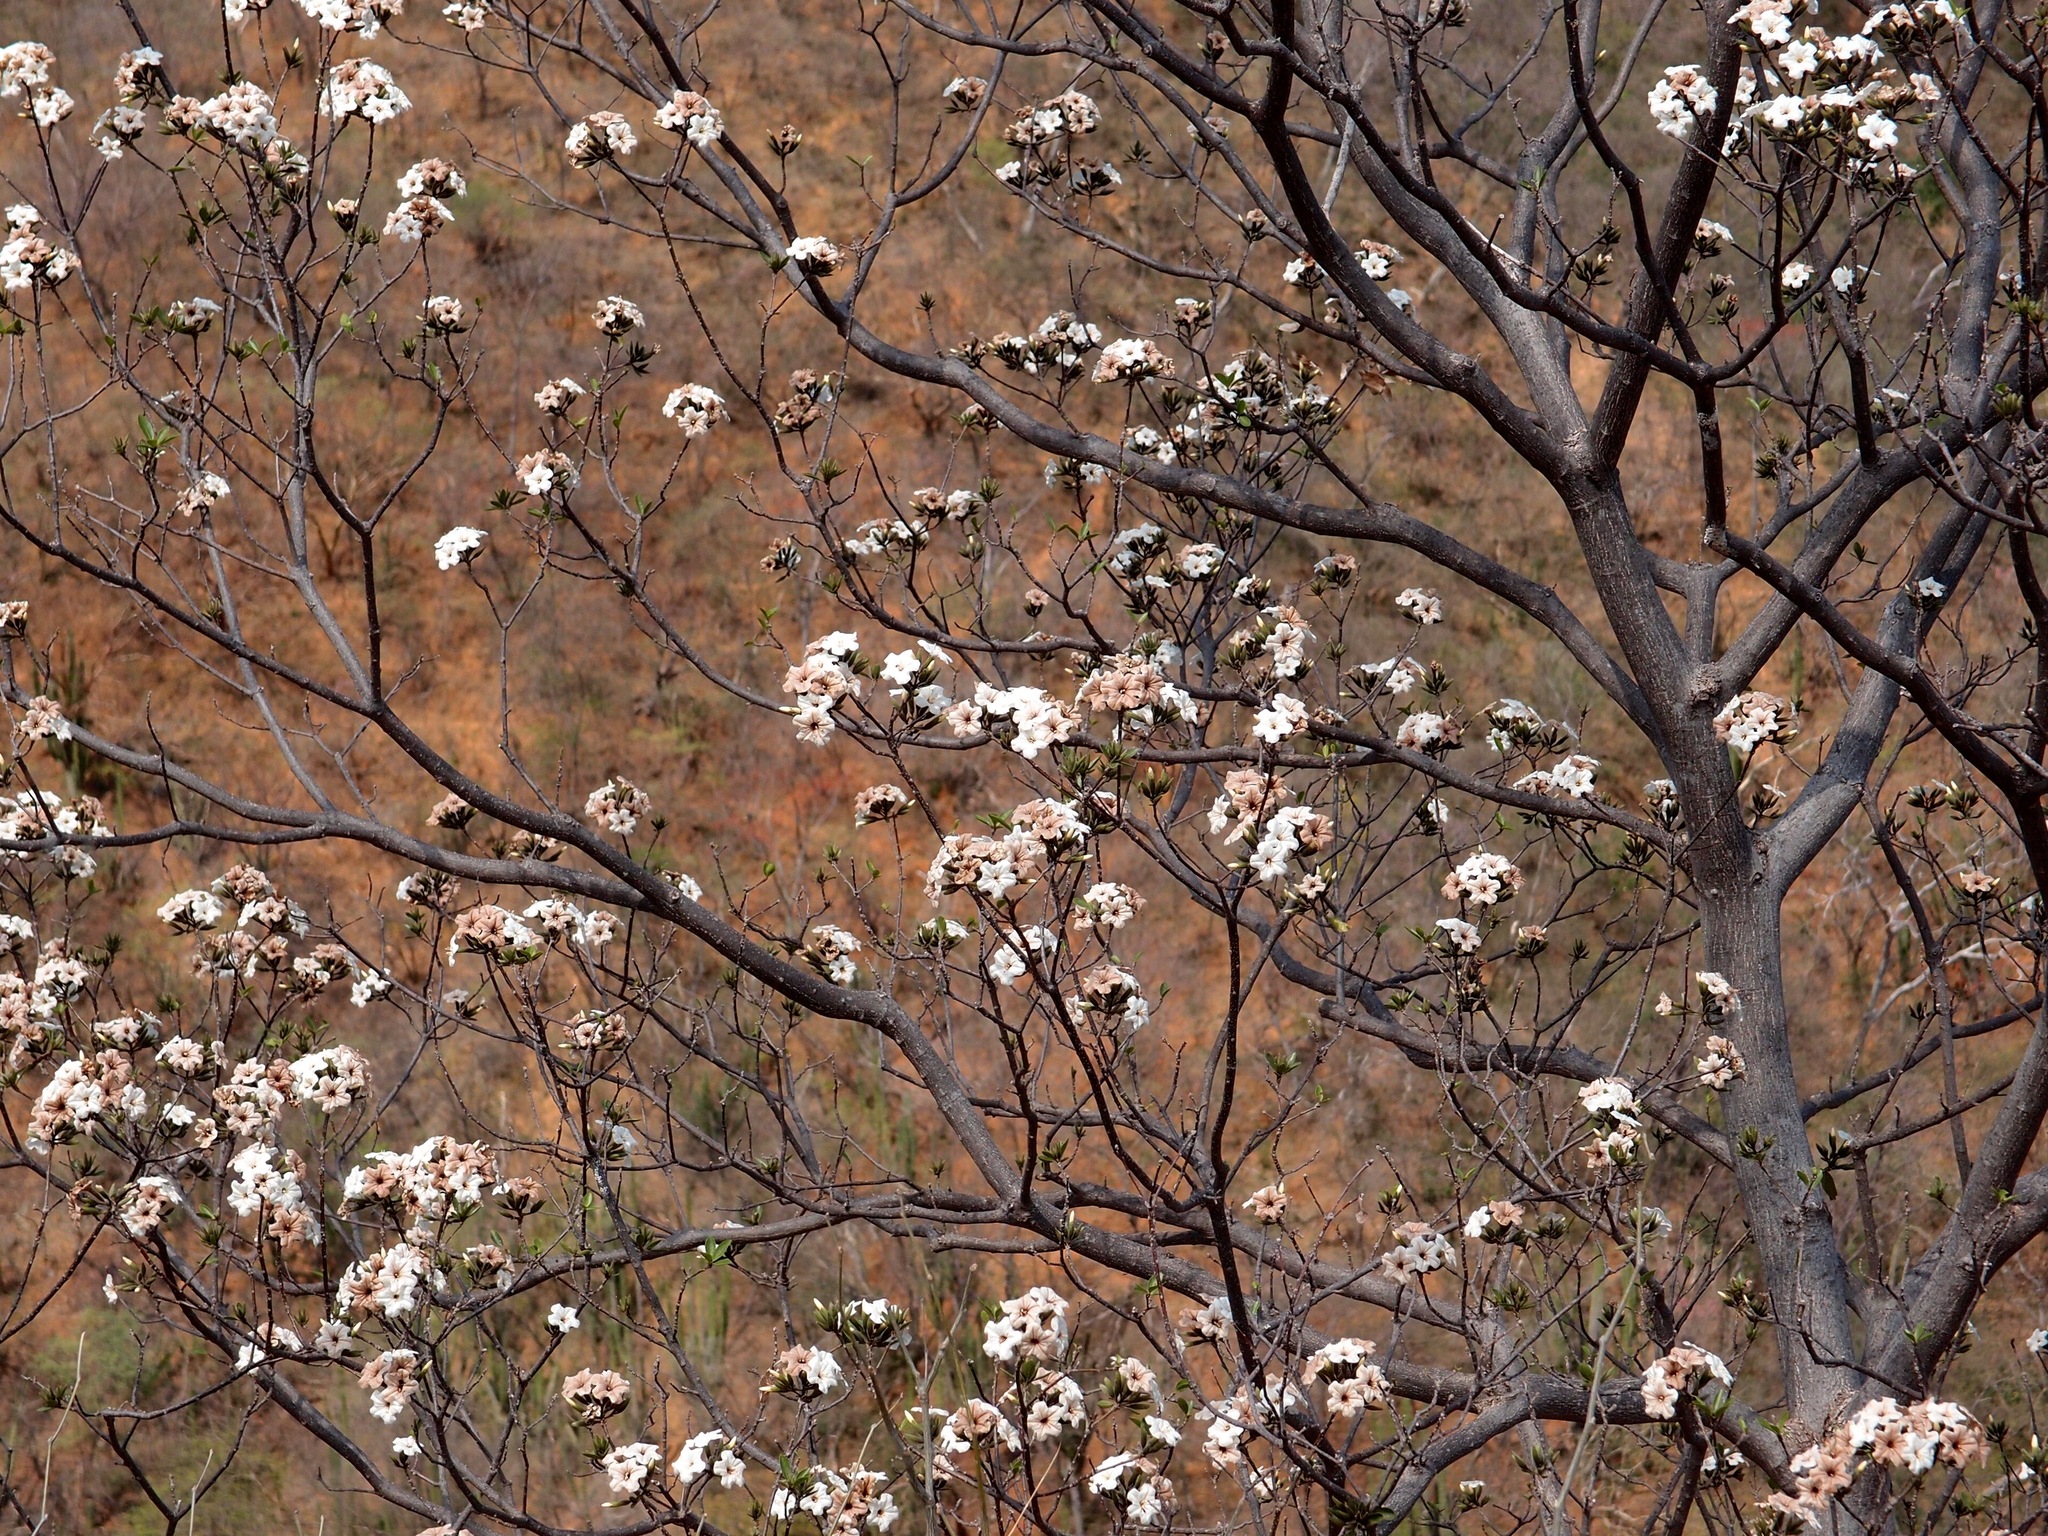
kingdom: Plantae
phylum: Tracheophyta
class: Magnoliopsida
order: Boraginales
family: Cordiaceae
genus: Cordia
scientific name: Cordia sonorae
